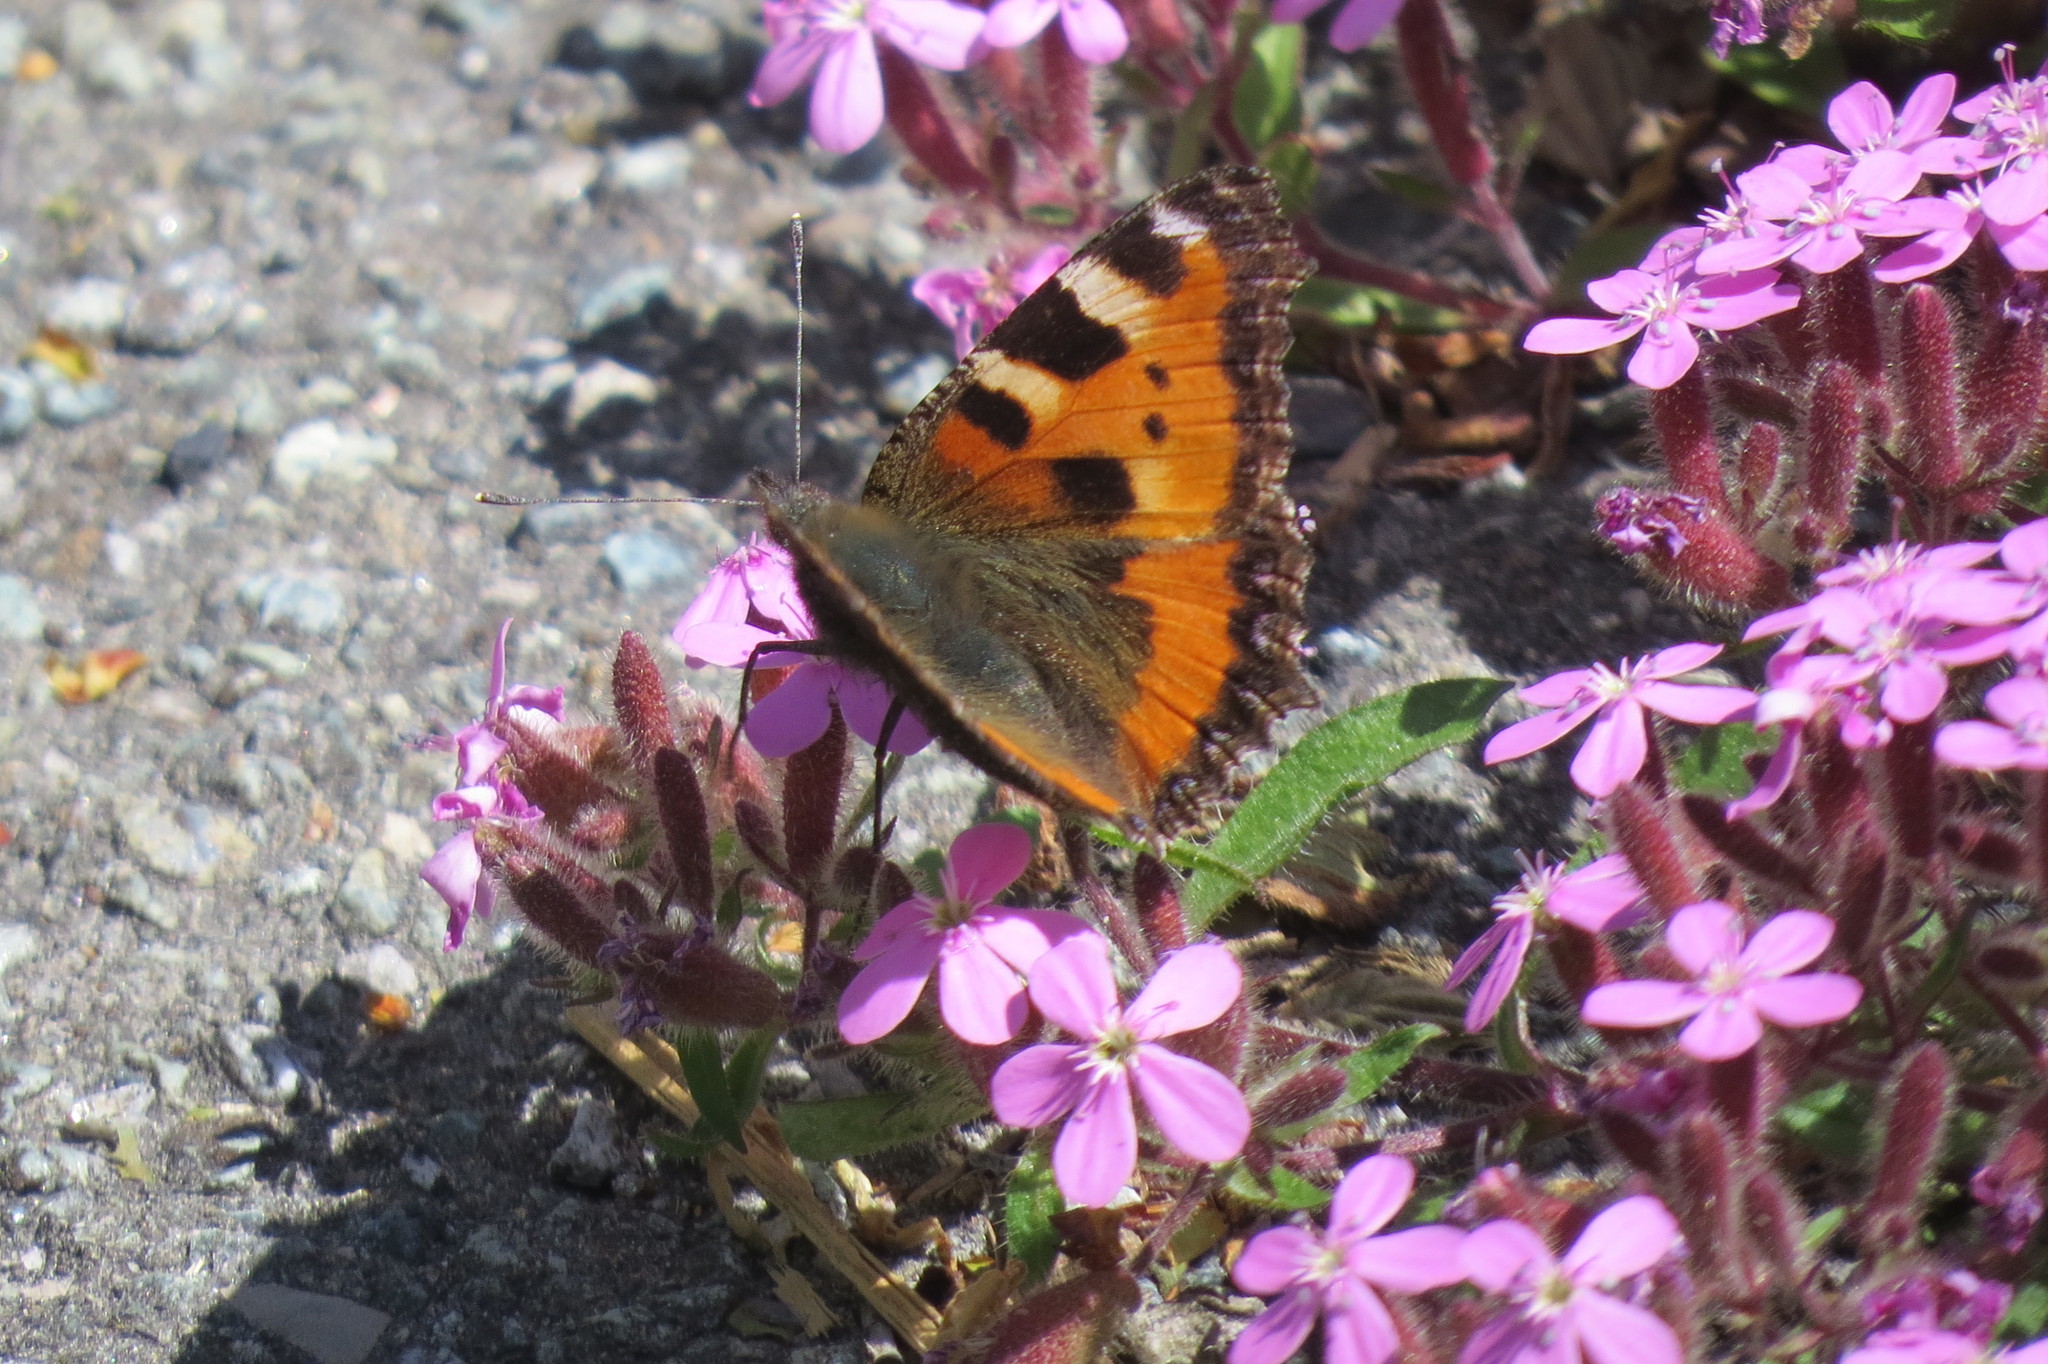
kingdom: Animalia
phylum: Arthropoda
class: Insecta
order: Lepidoptera
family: Nymphalidae
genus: Aglais
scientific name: Aglais urticae
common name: Small tortoiseshell
